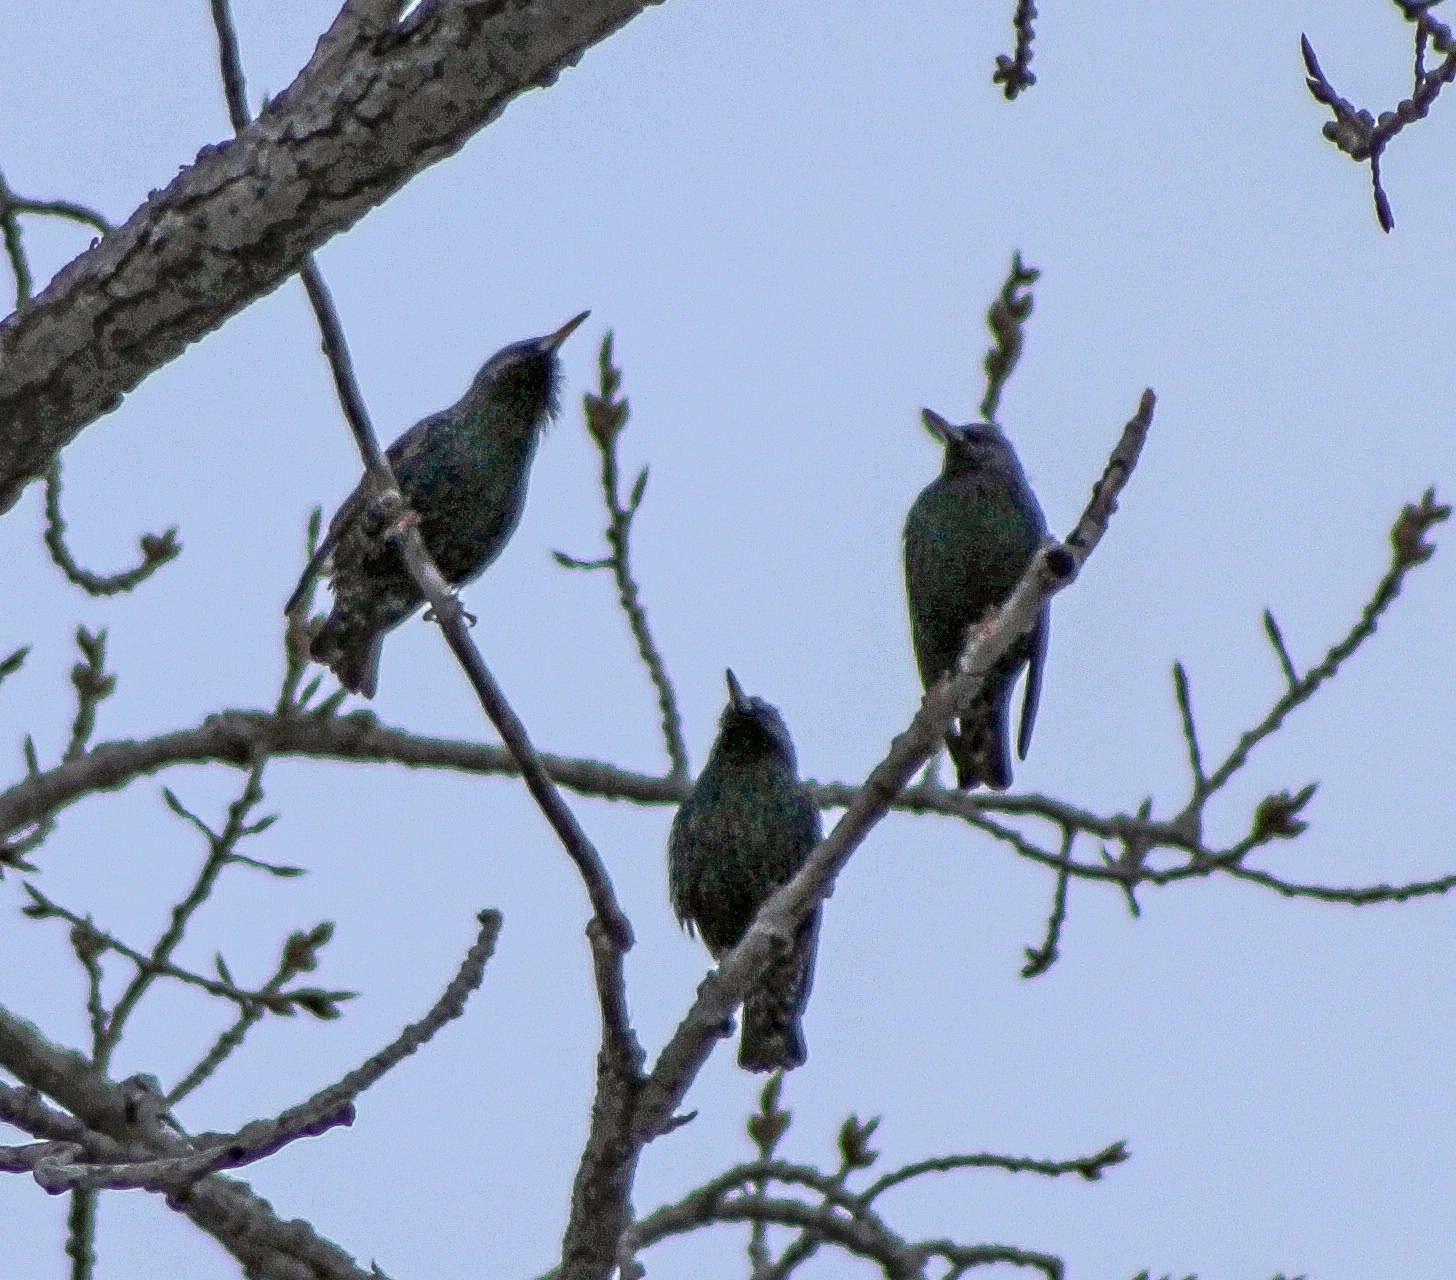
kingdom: Animalia
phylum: Chordata
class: Aves
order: Passeriformes
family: Sturnidae
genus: Sturnus
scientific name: Sturnus vulgaris
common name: Common starling
